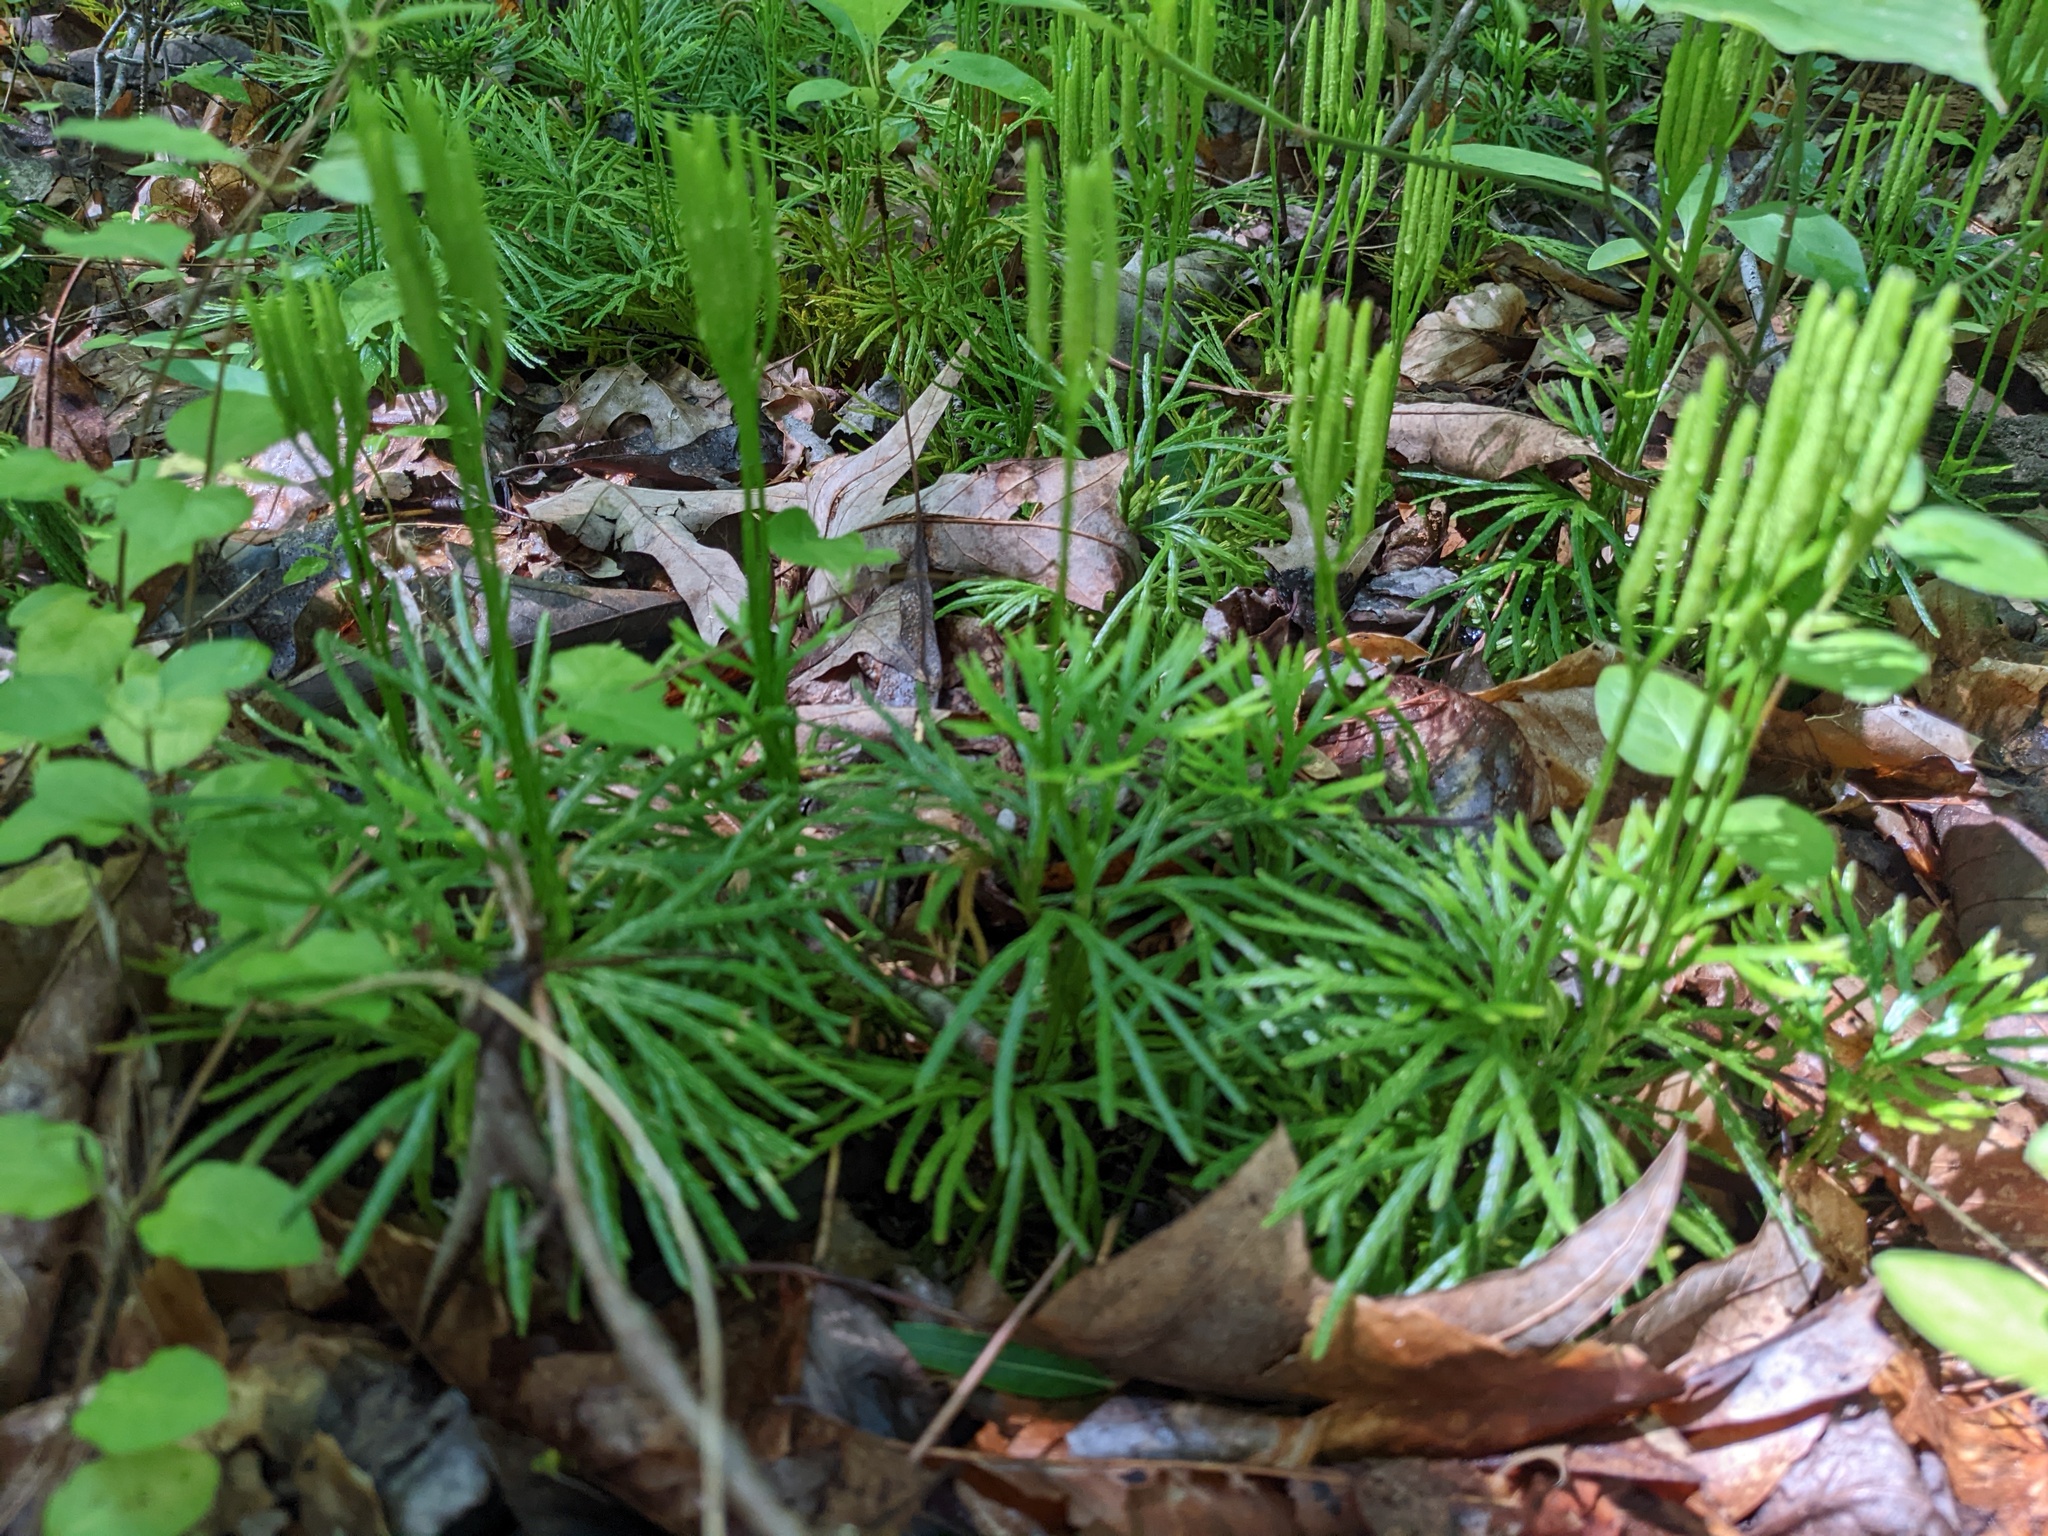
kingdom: Plantae
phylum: Tracheophyta
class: Lycopodiopsida
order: Lycopodiales
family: Lycopodiaceae
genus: Diphasiastrum
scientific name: Diphasiastrum digitatum
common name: Southern running-pine
